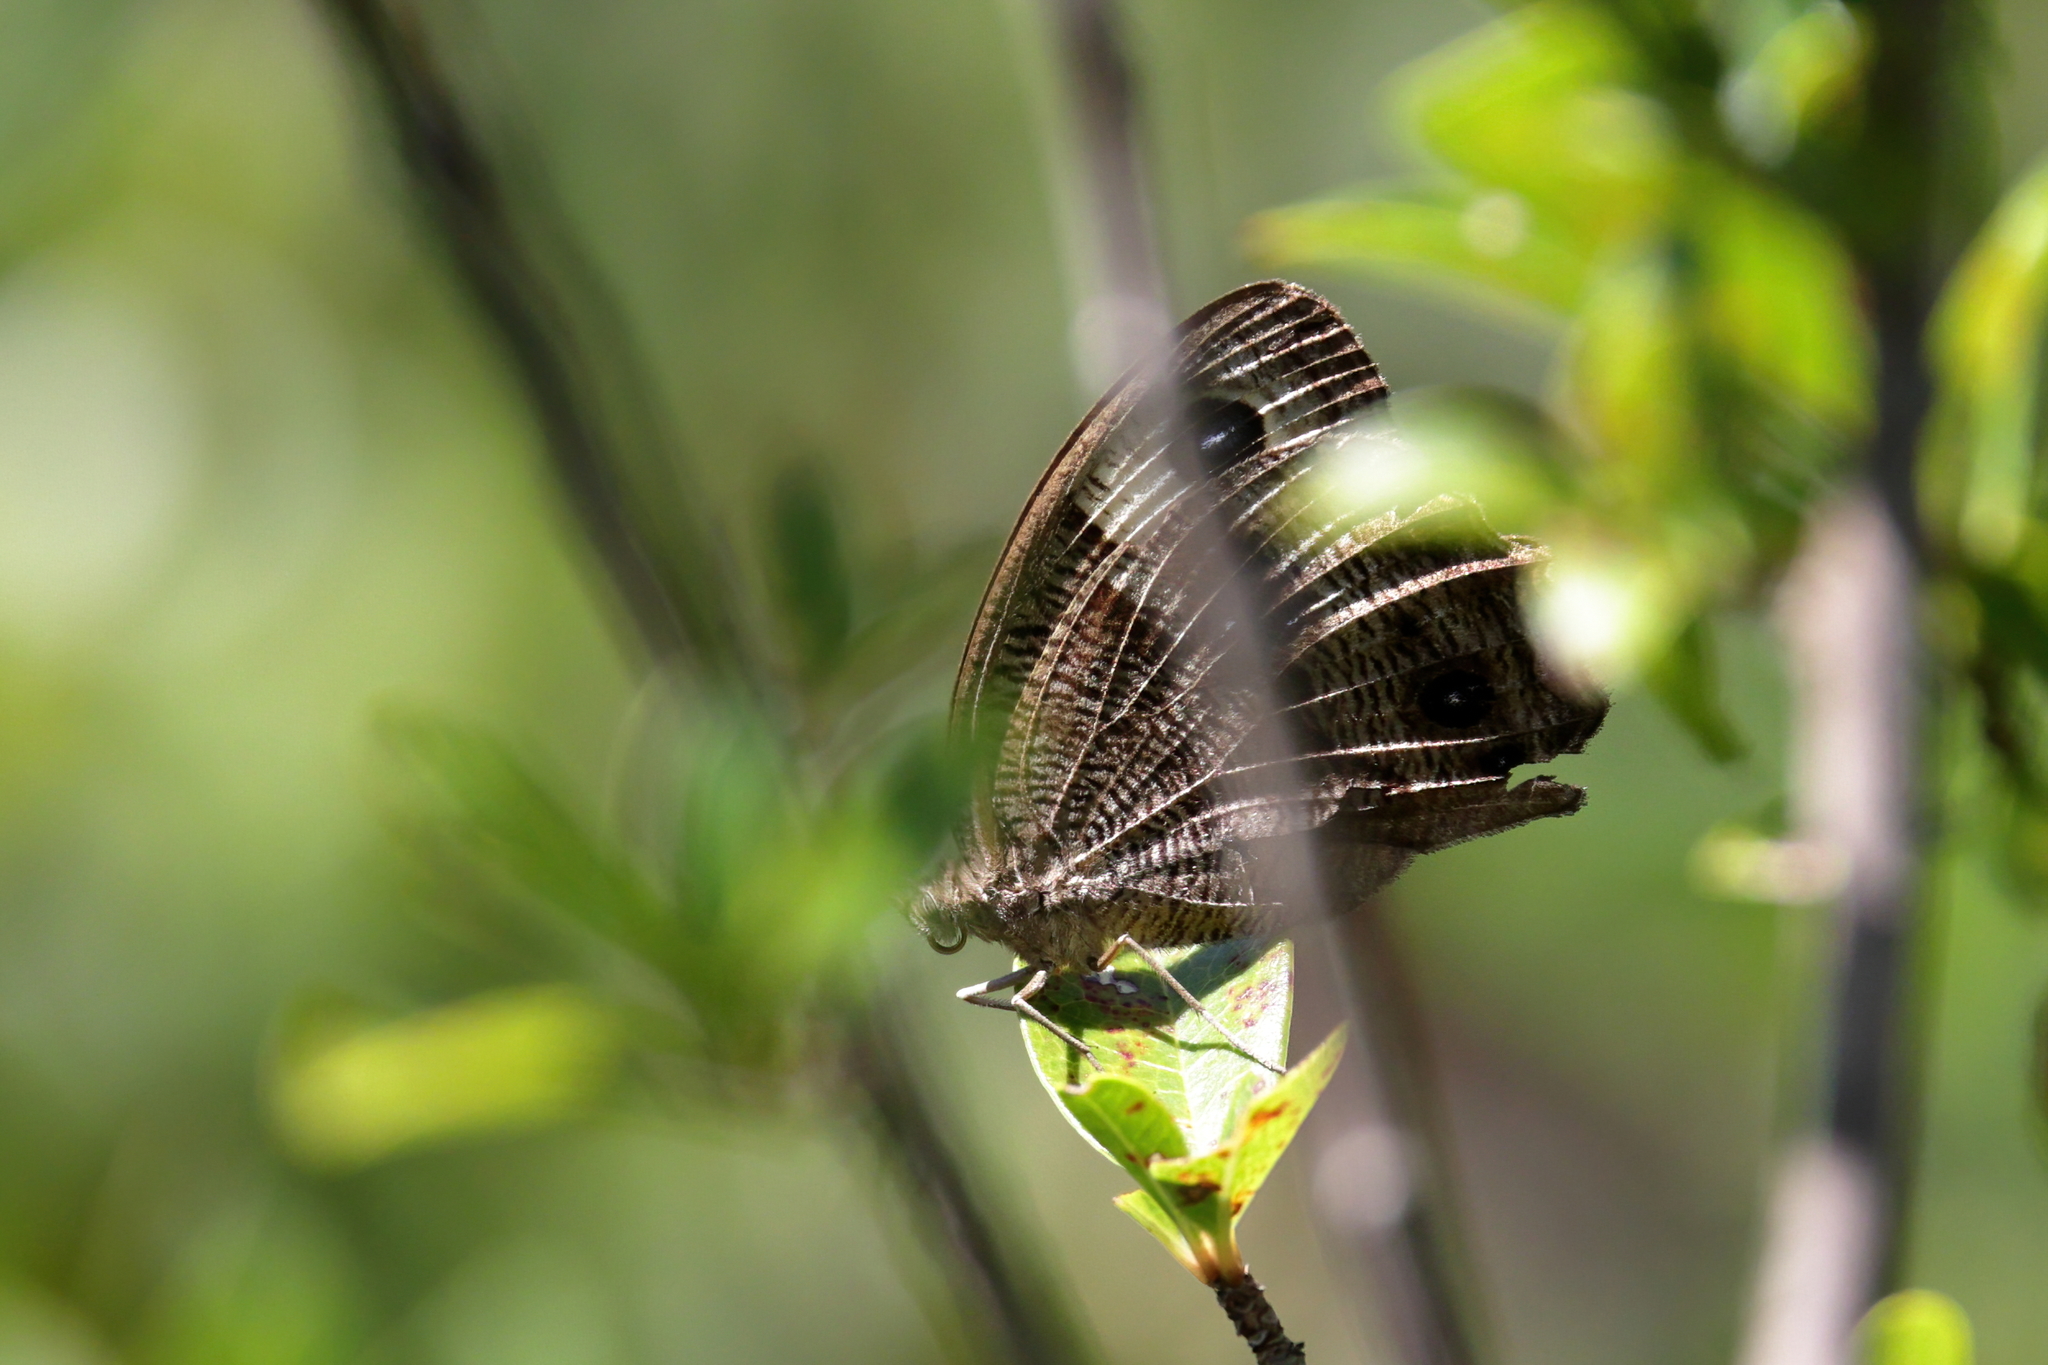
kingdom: Animalia
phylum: Arthropoda
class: Insecta
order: Lepidoptera
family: Nymphalidae
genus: Cercyonis
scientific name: Cercyonis pegala
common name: Common wood-nymph
